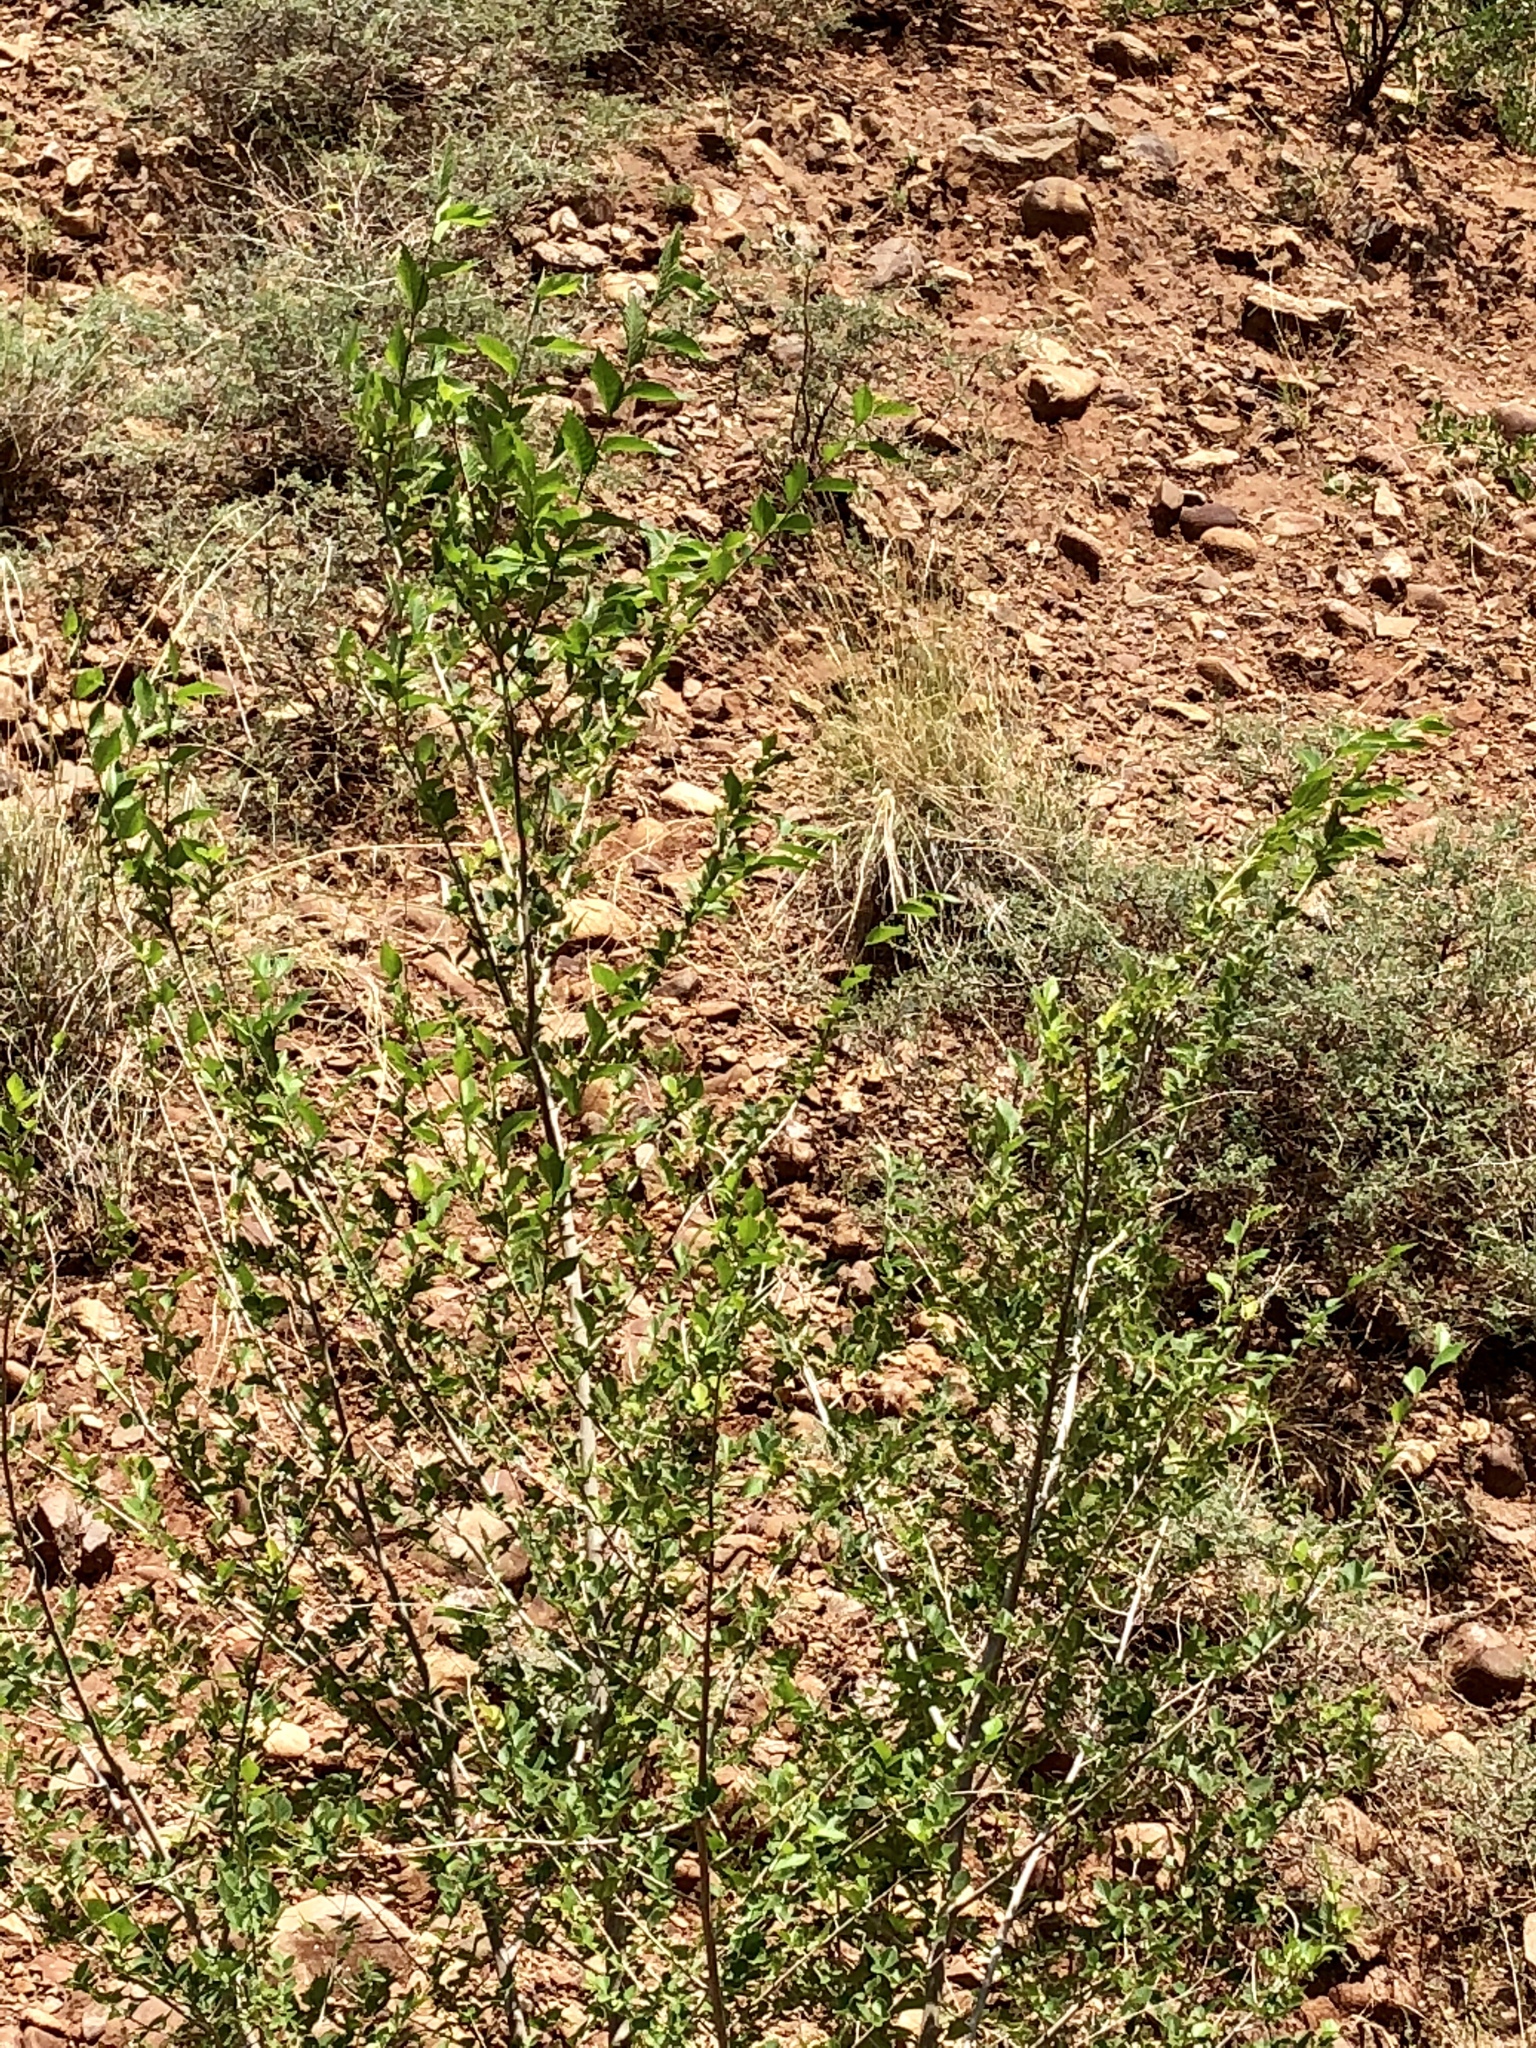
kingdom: Plantae
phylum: Tracheophyta
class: Magnoliopsida
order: Rosales
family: Ulmaceae
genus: Ulmus
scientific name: Ulmus pumila
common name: Siberian elm
